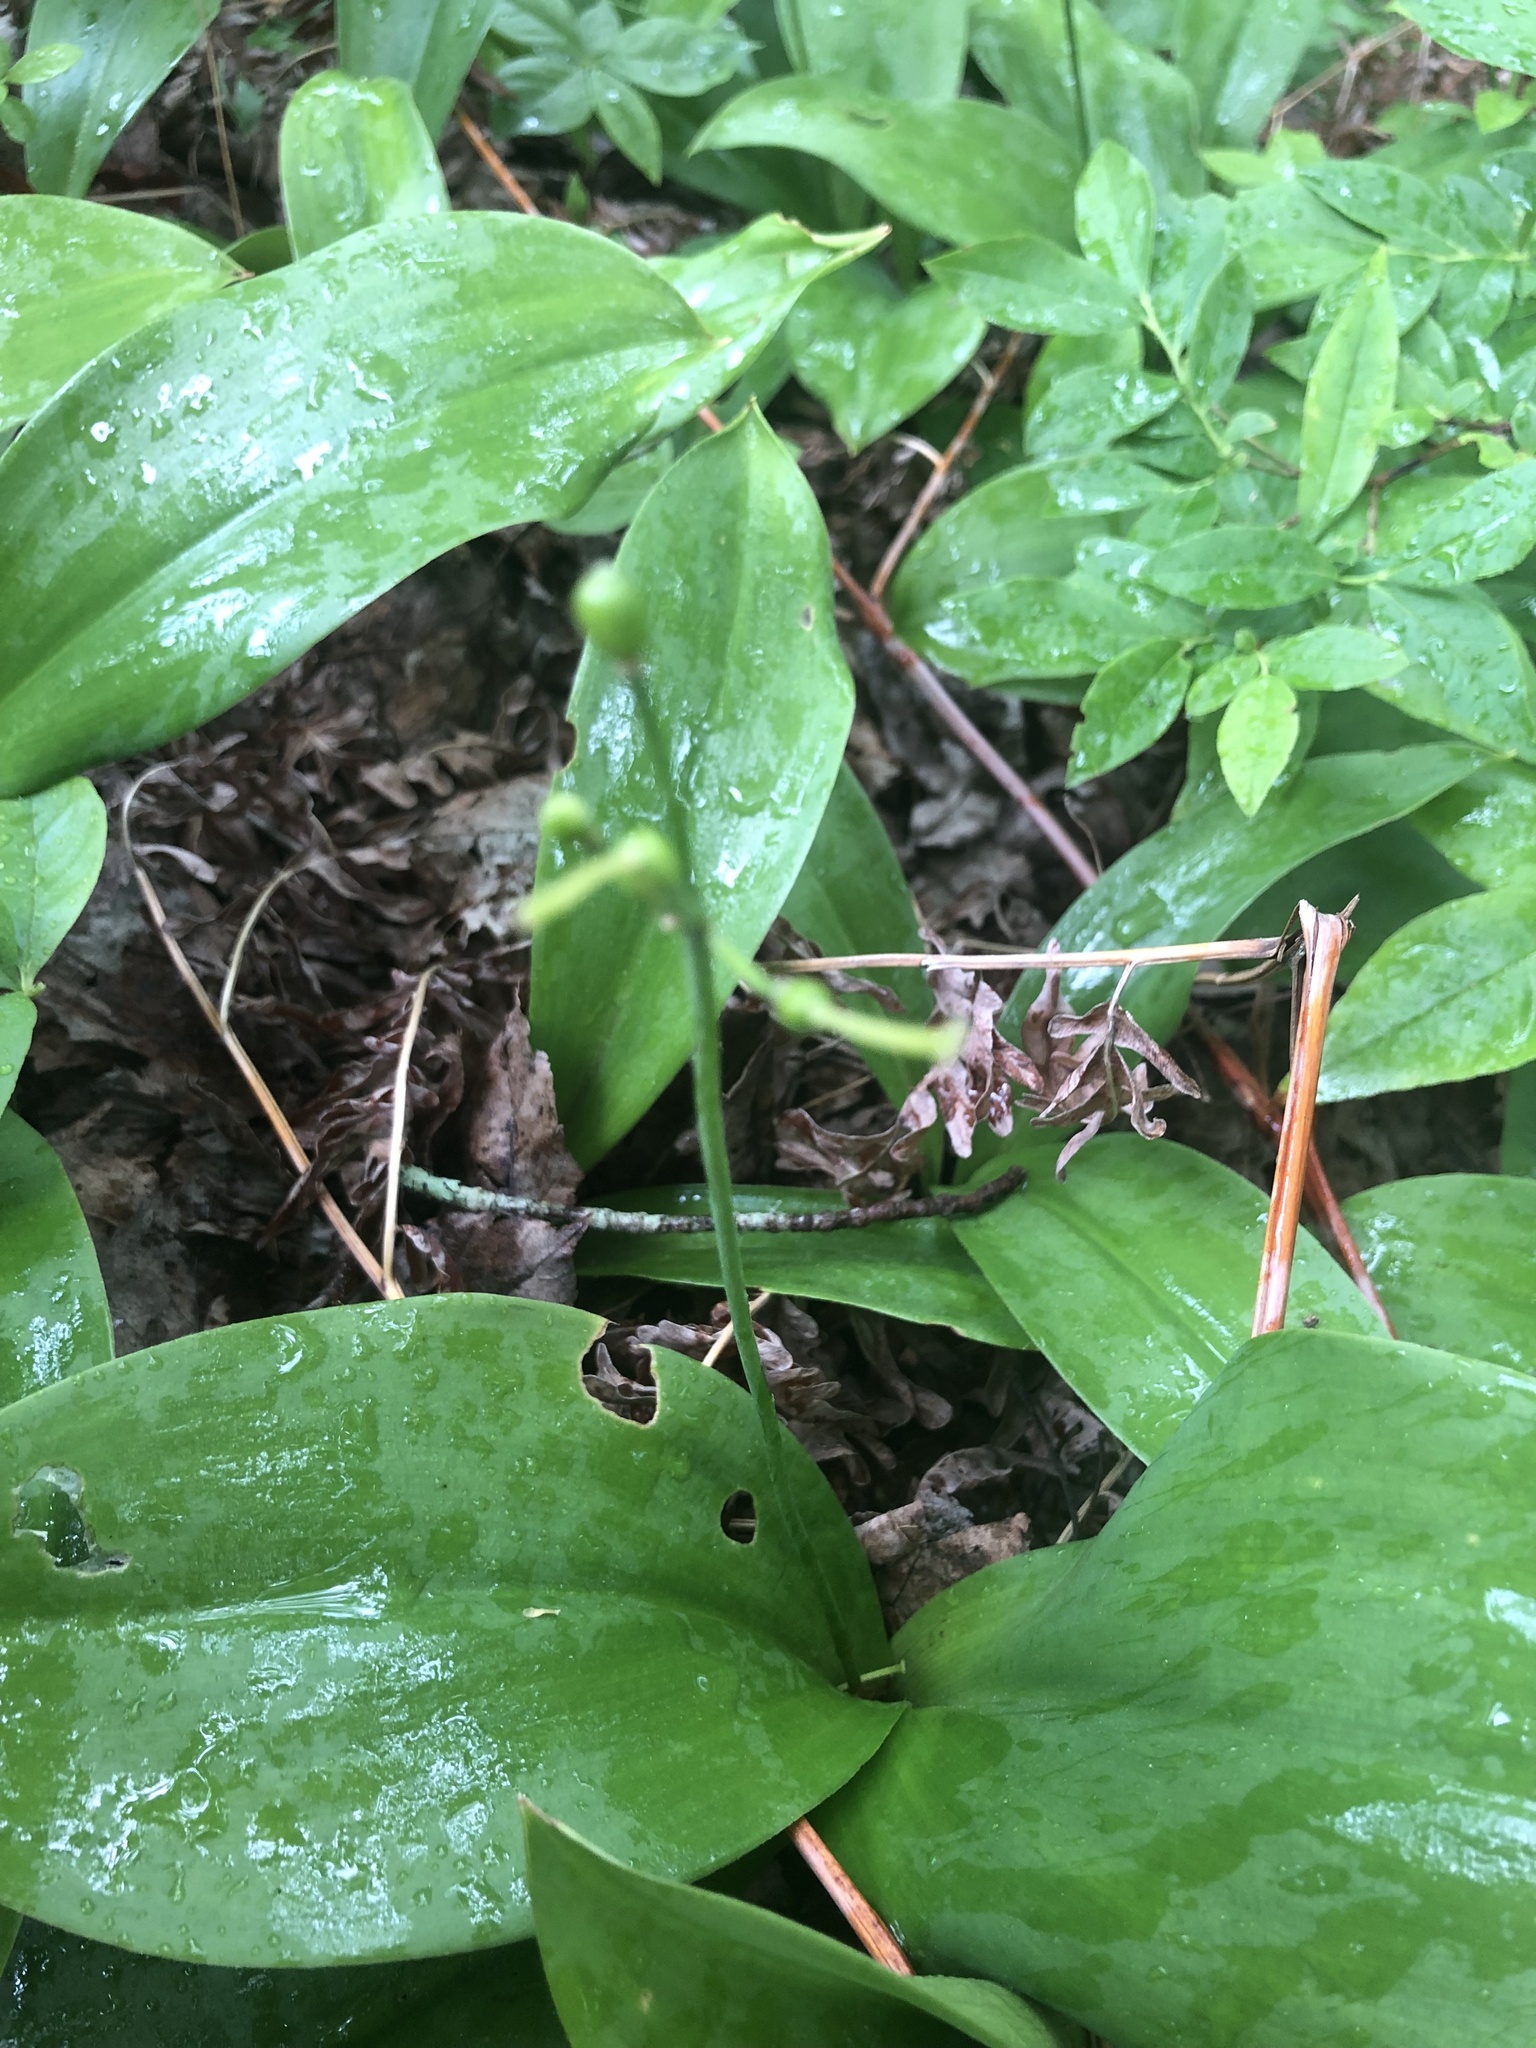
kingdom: Plantae
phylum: Tracheophyta
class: Liliopsida
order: Liliales
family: Liliaceae
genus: Clintonia
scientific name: Clintonia borealis
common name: Yellow clintonia
